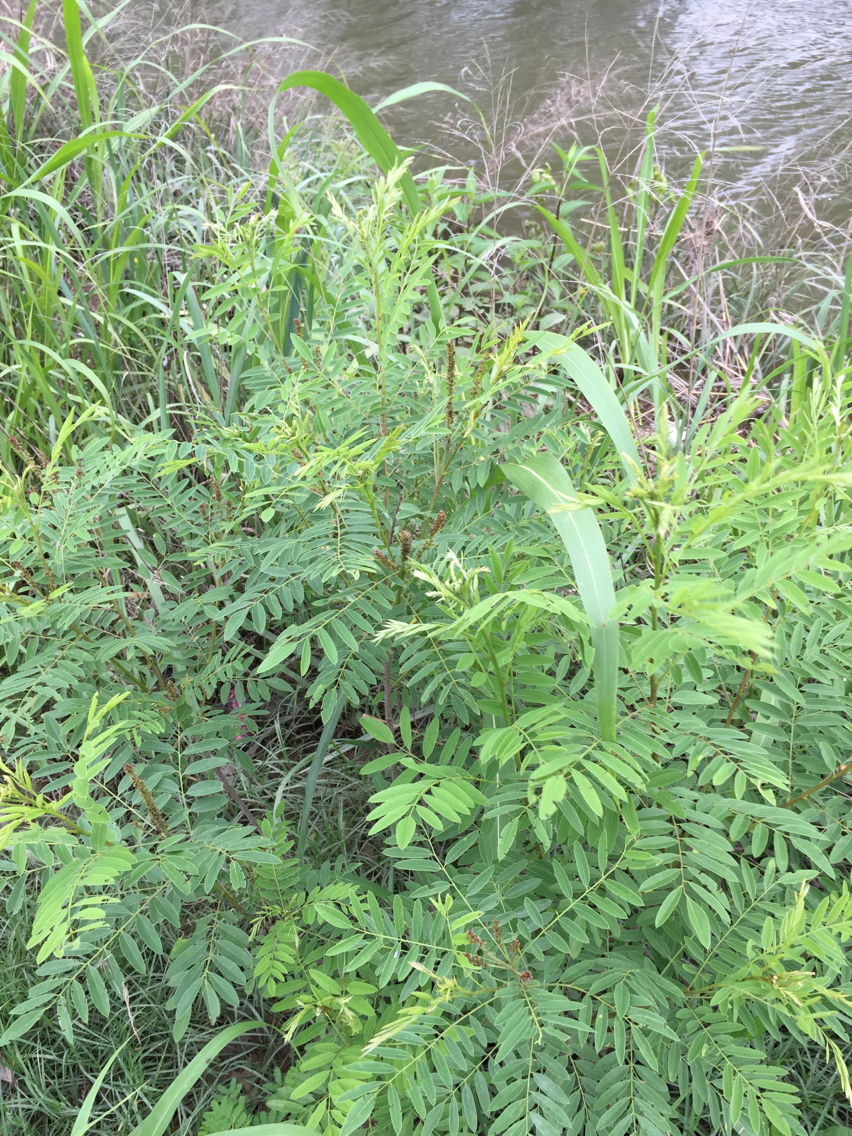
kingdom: Plantae
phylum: Tracheophyta
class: Magnoliopsida
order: Fabales
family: Fabaceae
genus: Amorpha
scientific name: Amorpha fruticosa
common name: False indigo
